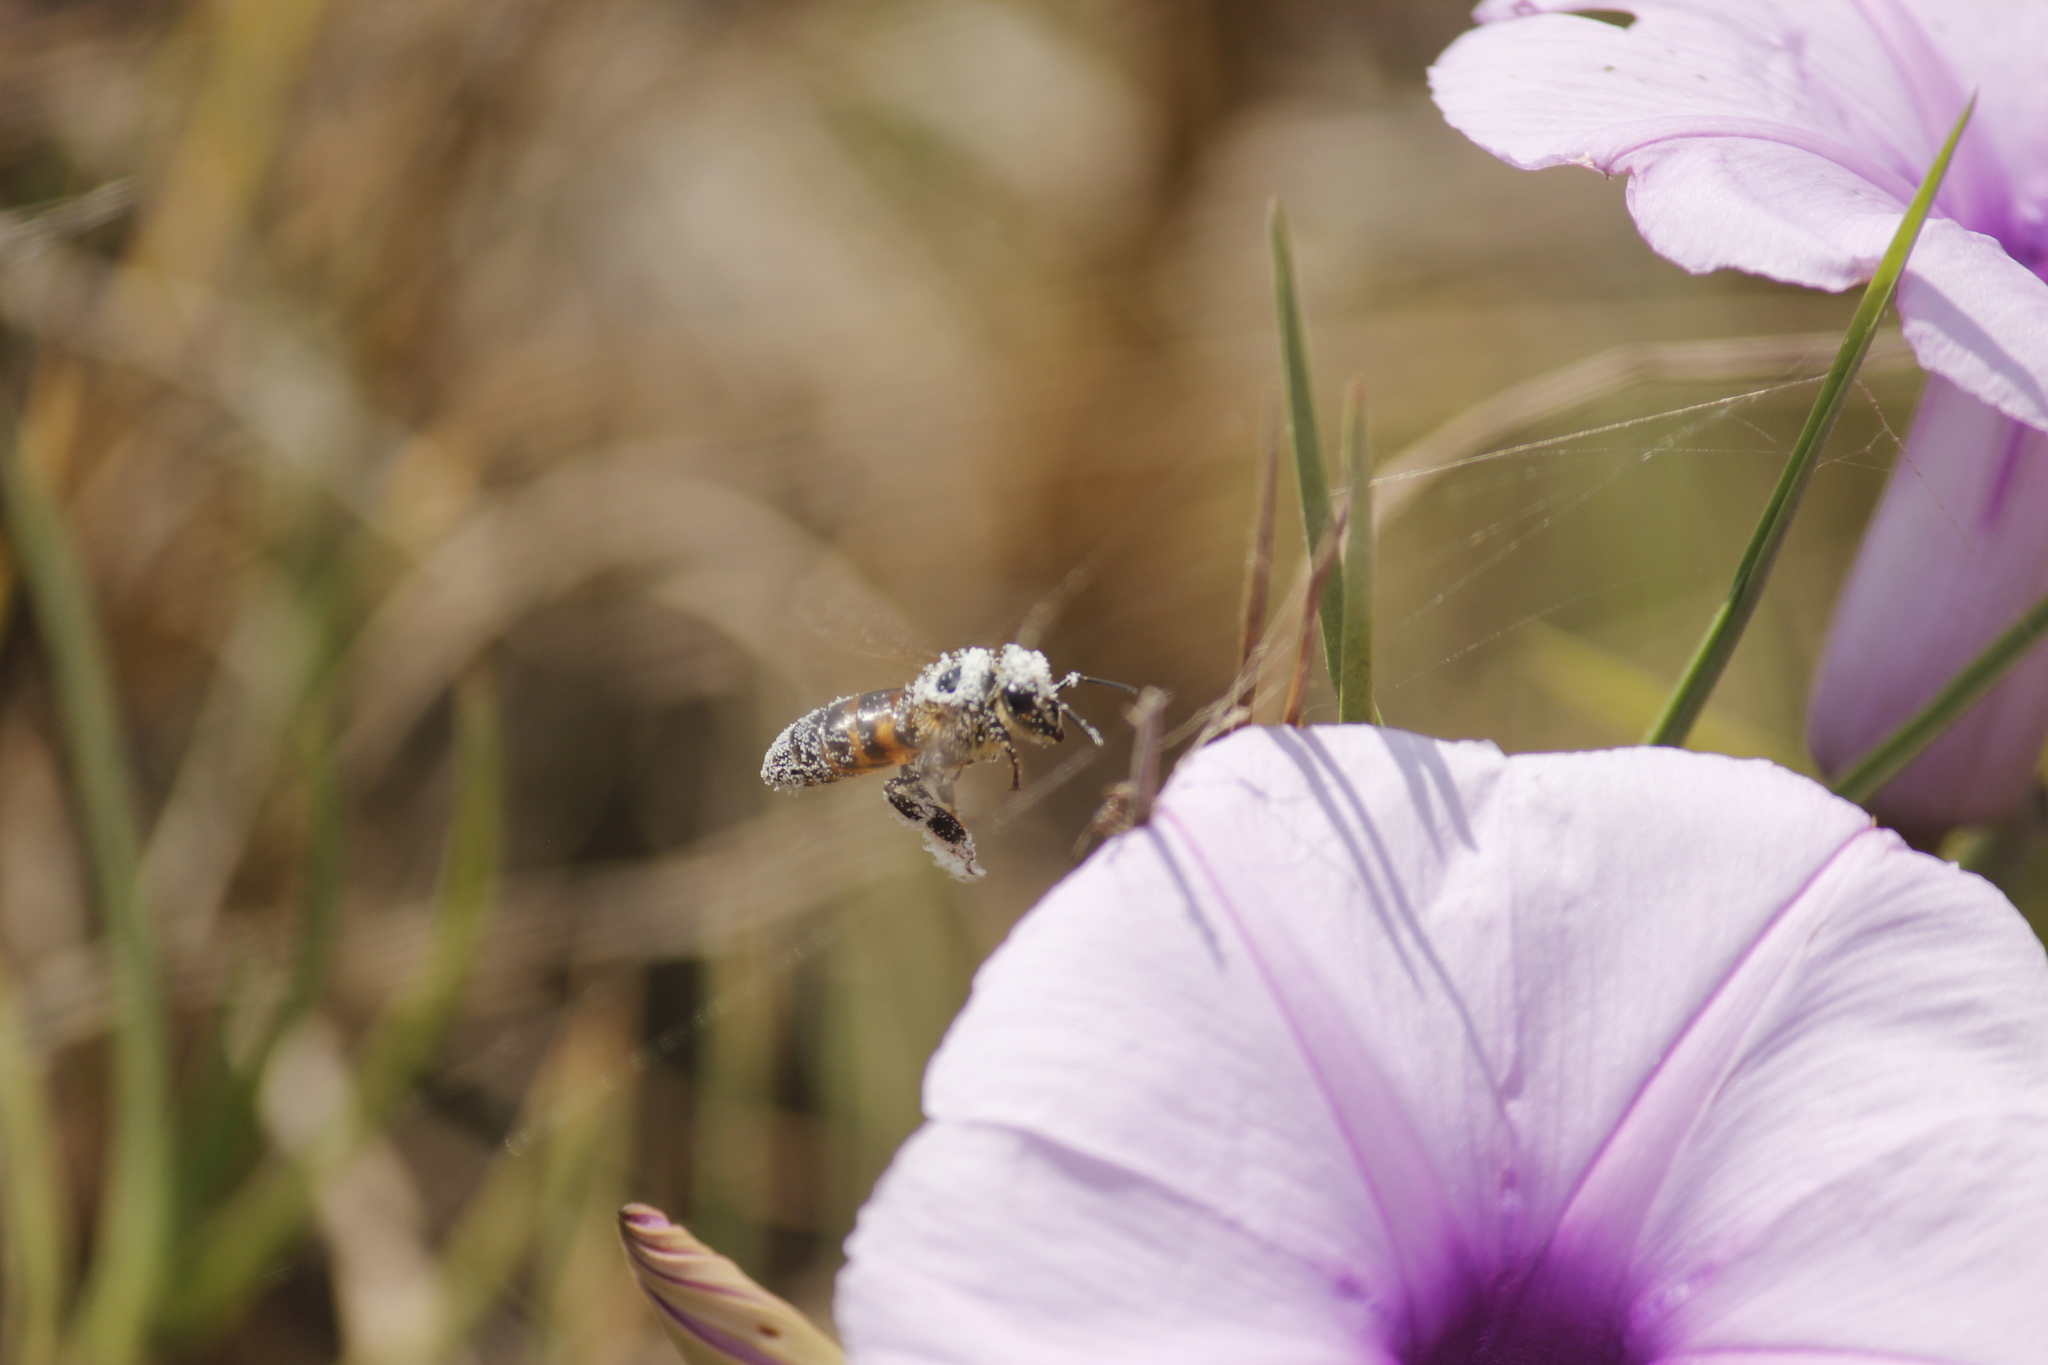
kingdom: Animalia
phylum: Arthropoda
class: Insecta
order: Hymenoptera
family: Apidae
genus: Apis
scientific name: Apis mellifera
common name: Honey bee
